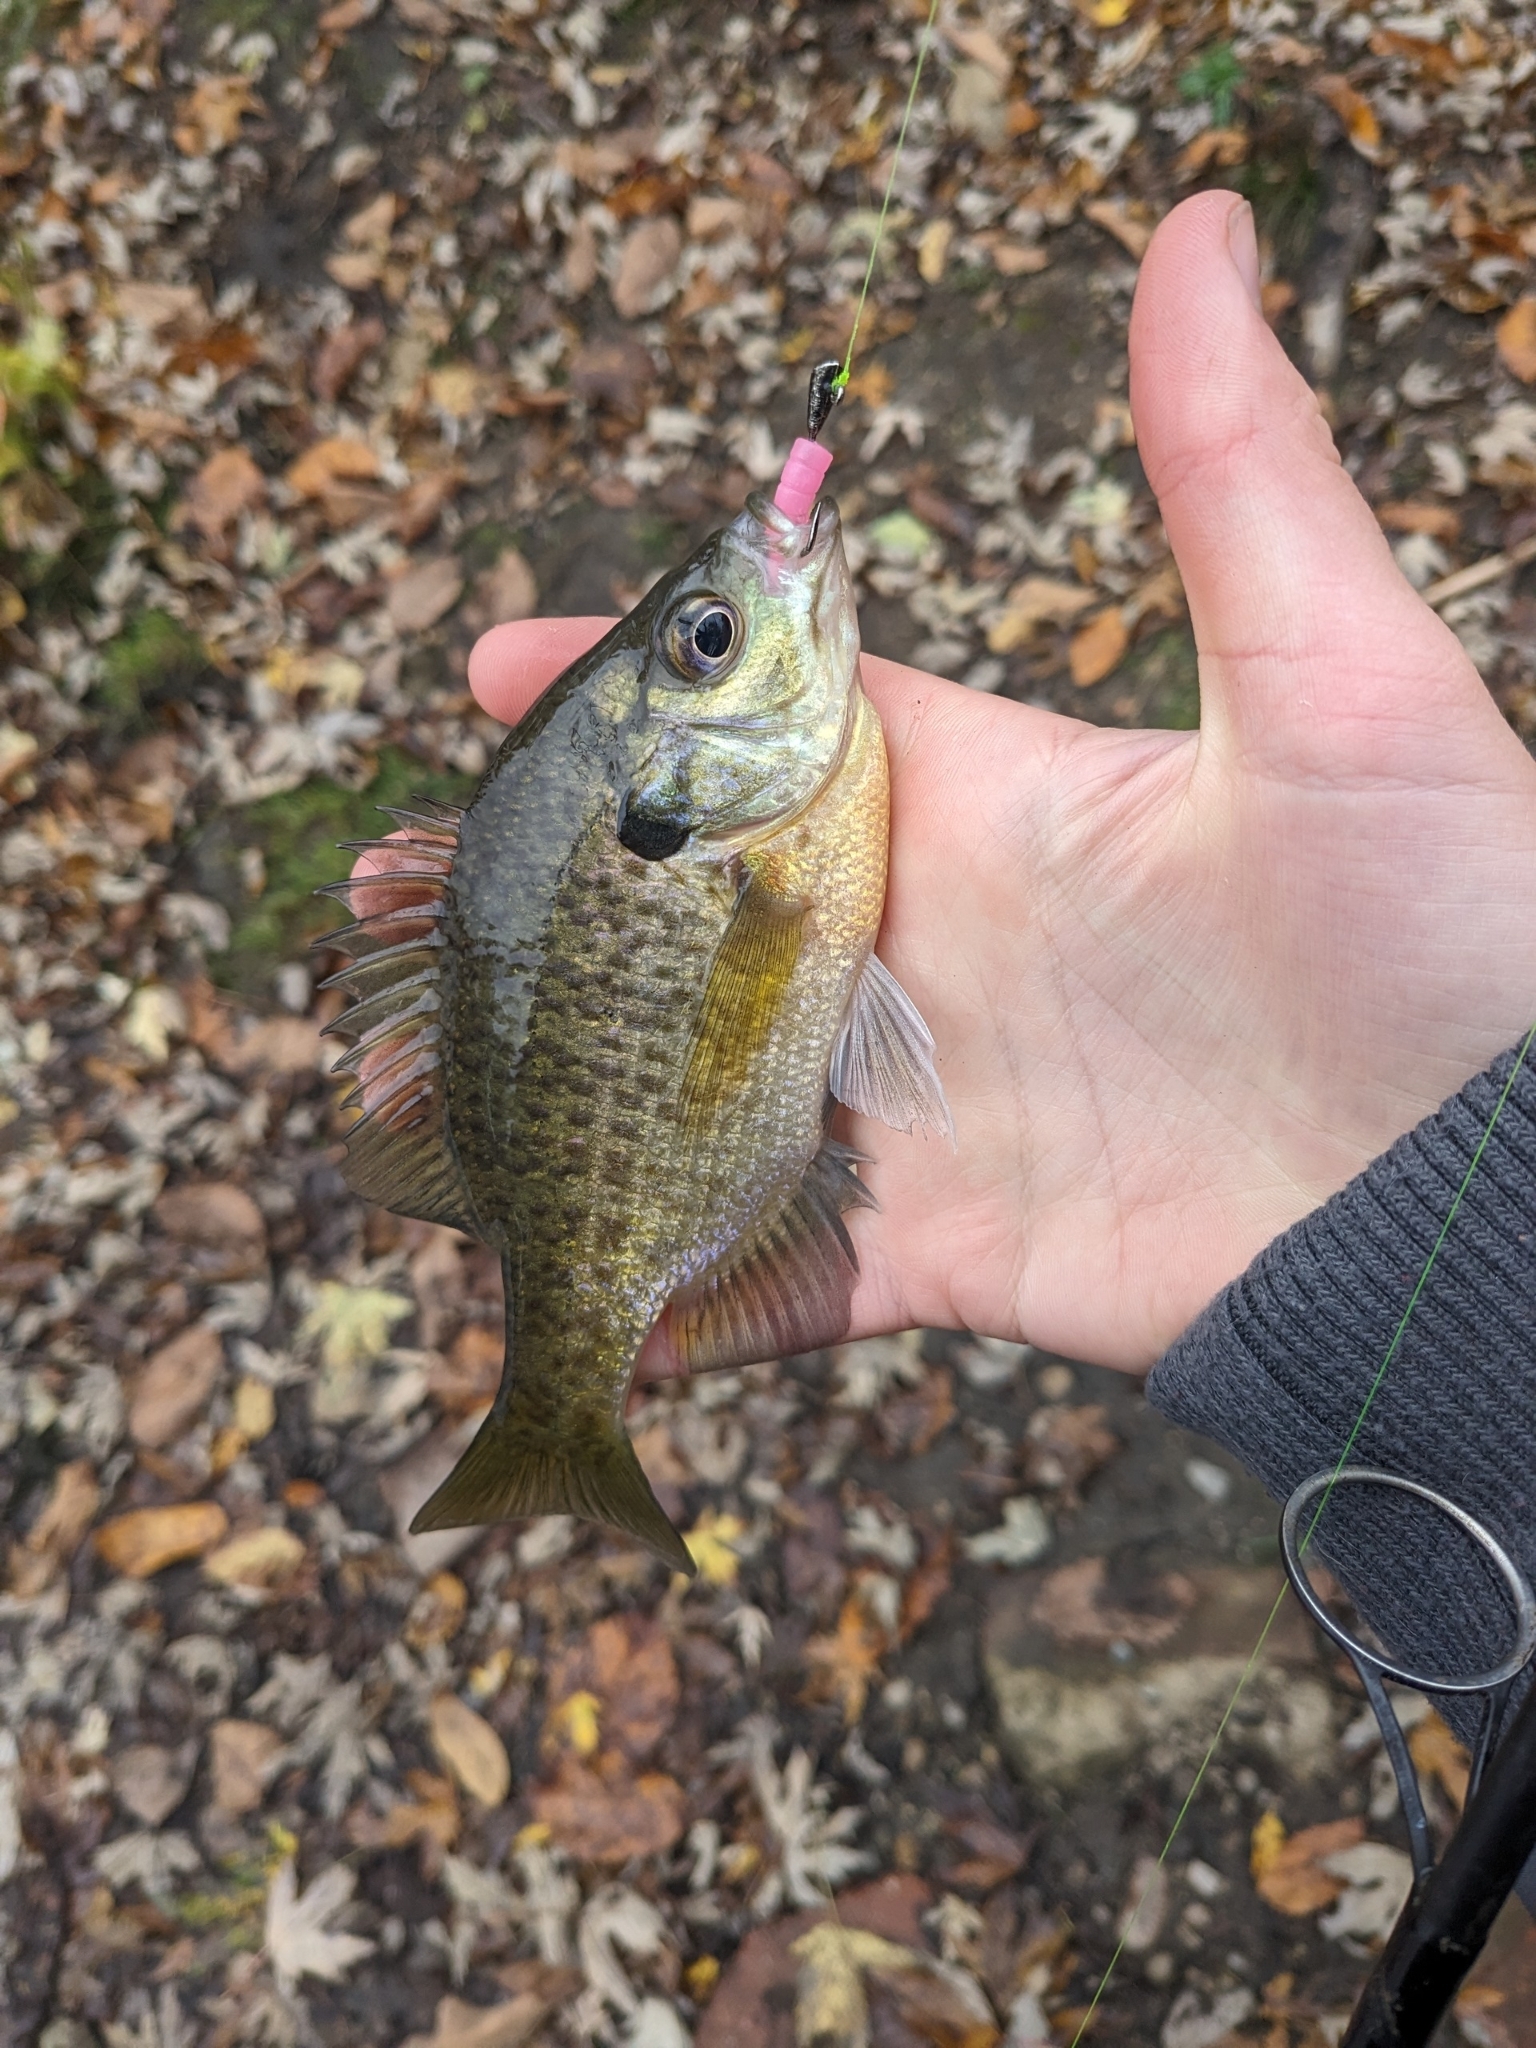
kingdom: Animalia
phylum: Chordata
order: Perciformes
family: Centrarchidae
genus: Lepomis
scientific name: Lepomis macrochirus
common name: Bluegill
